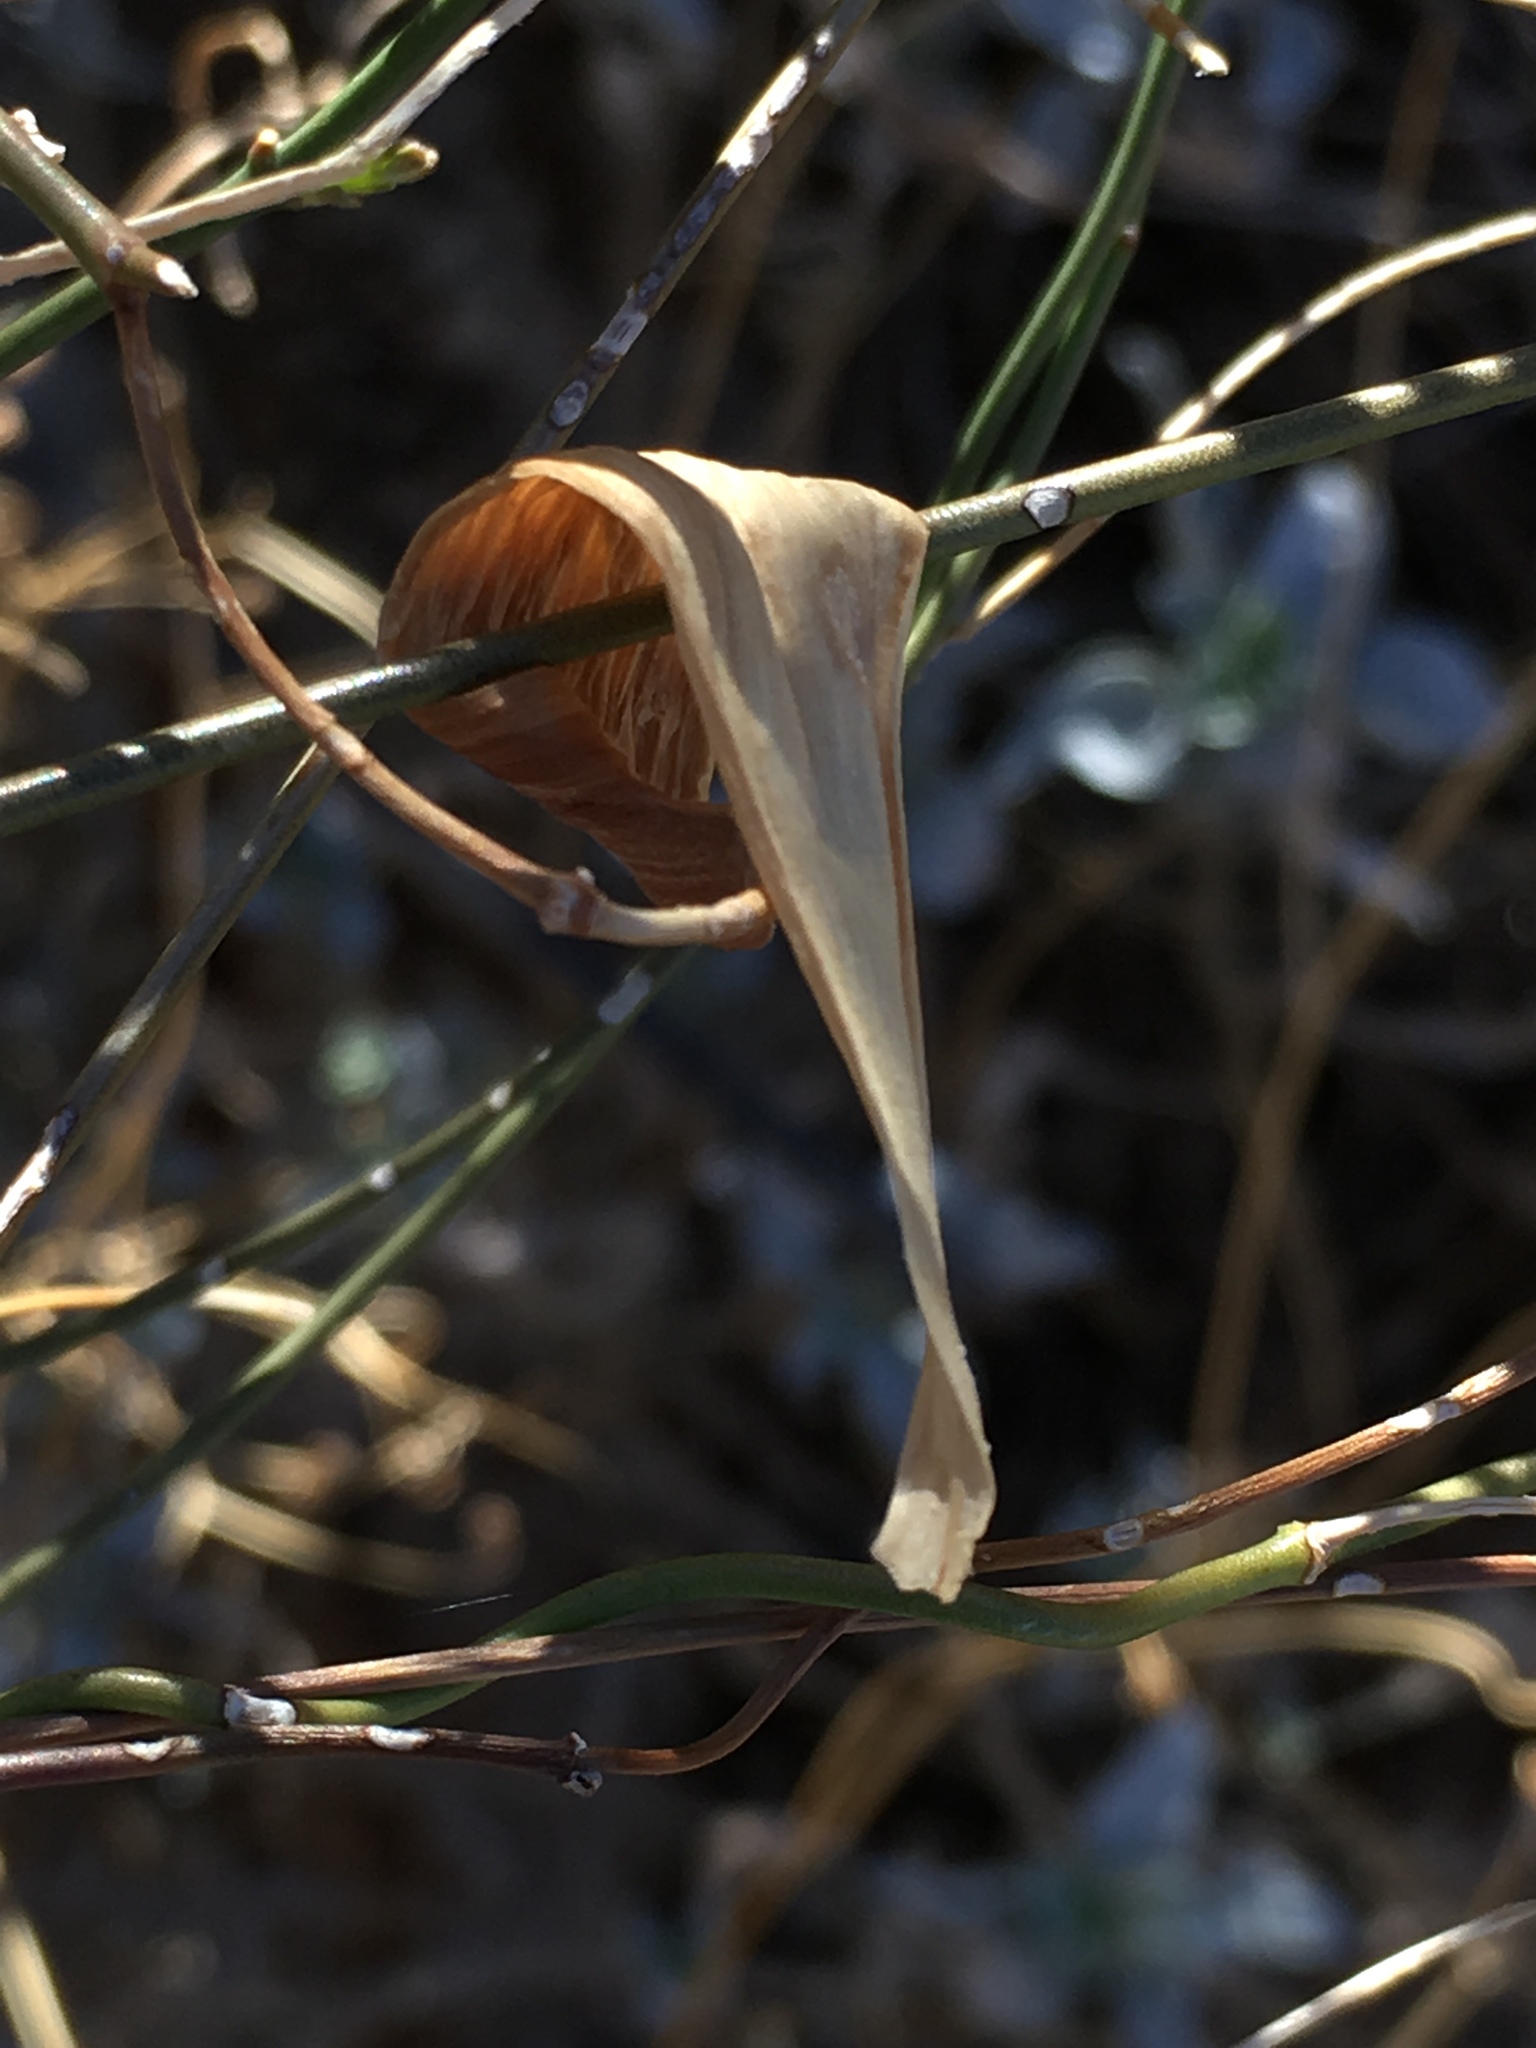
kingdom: Plantae
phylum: Tracheophyta
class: Magnoliopsida
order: Gentianales
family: Apocynaceae
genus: Funastrum
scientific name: Funastrum heterophyllum
